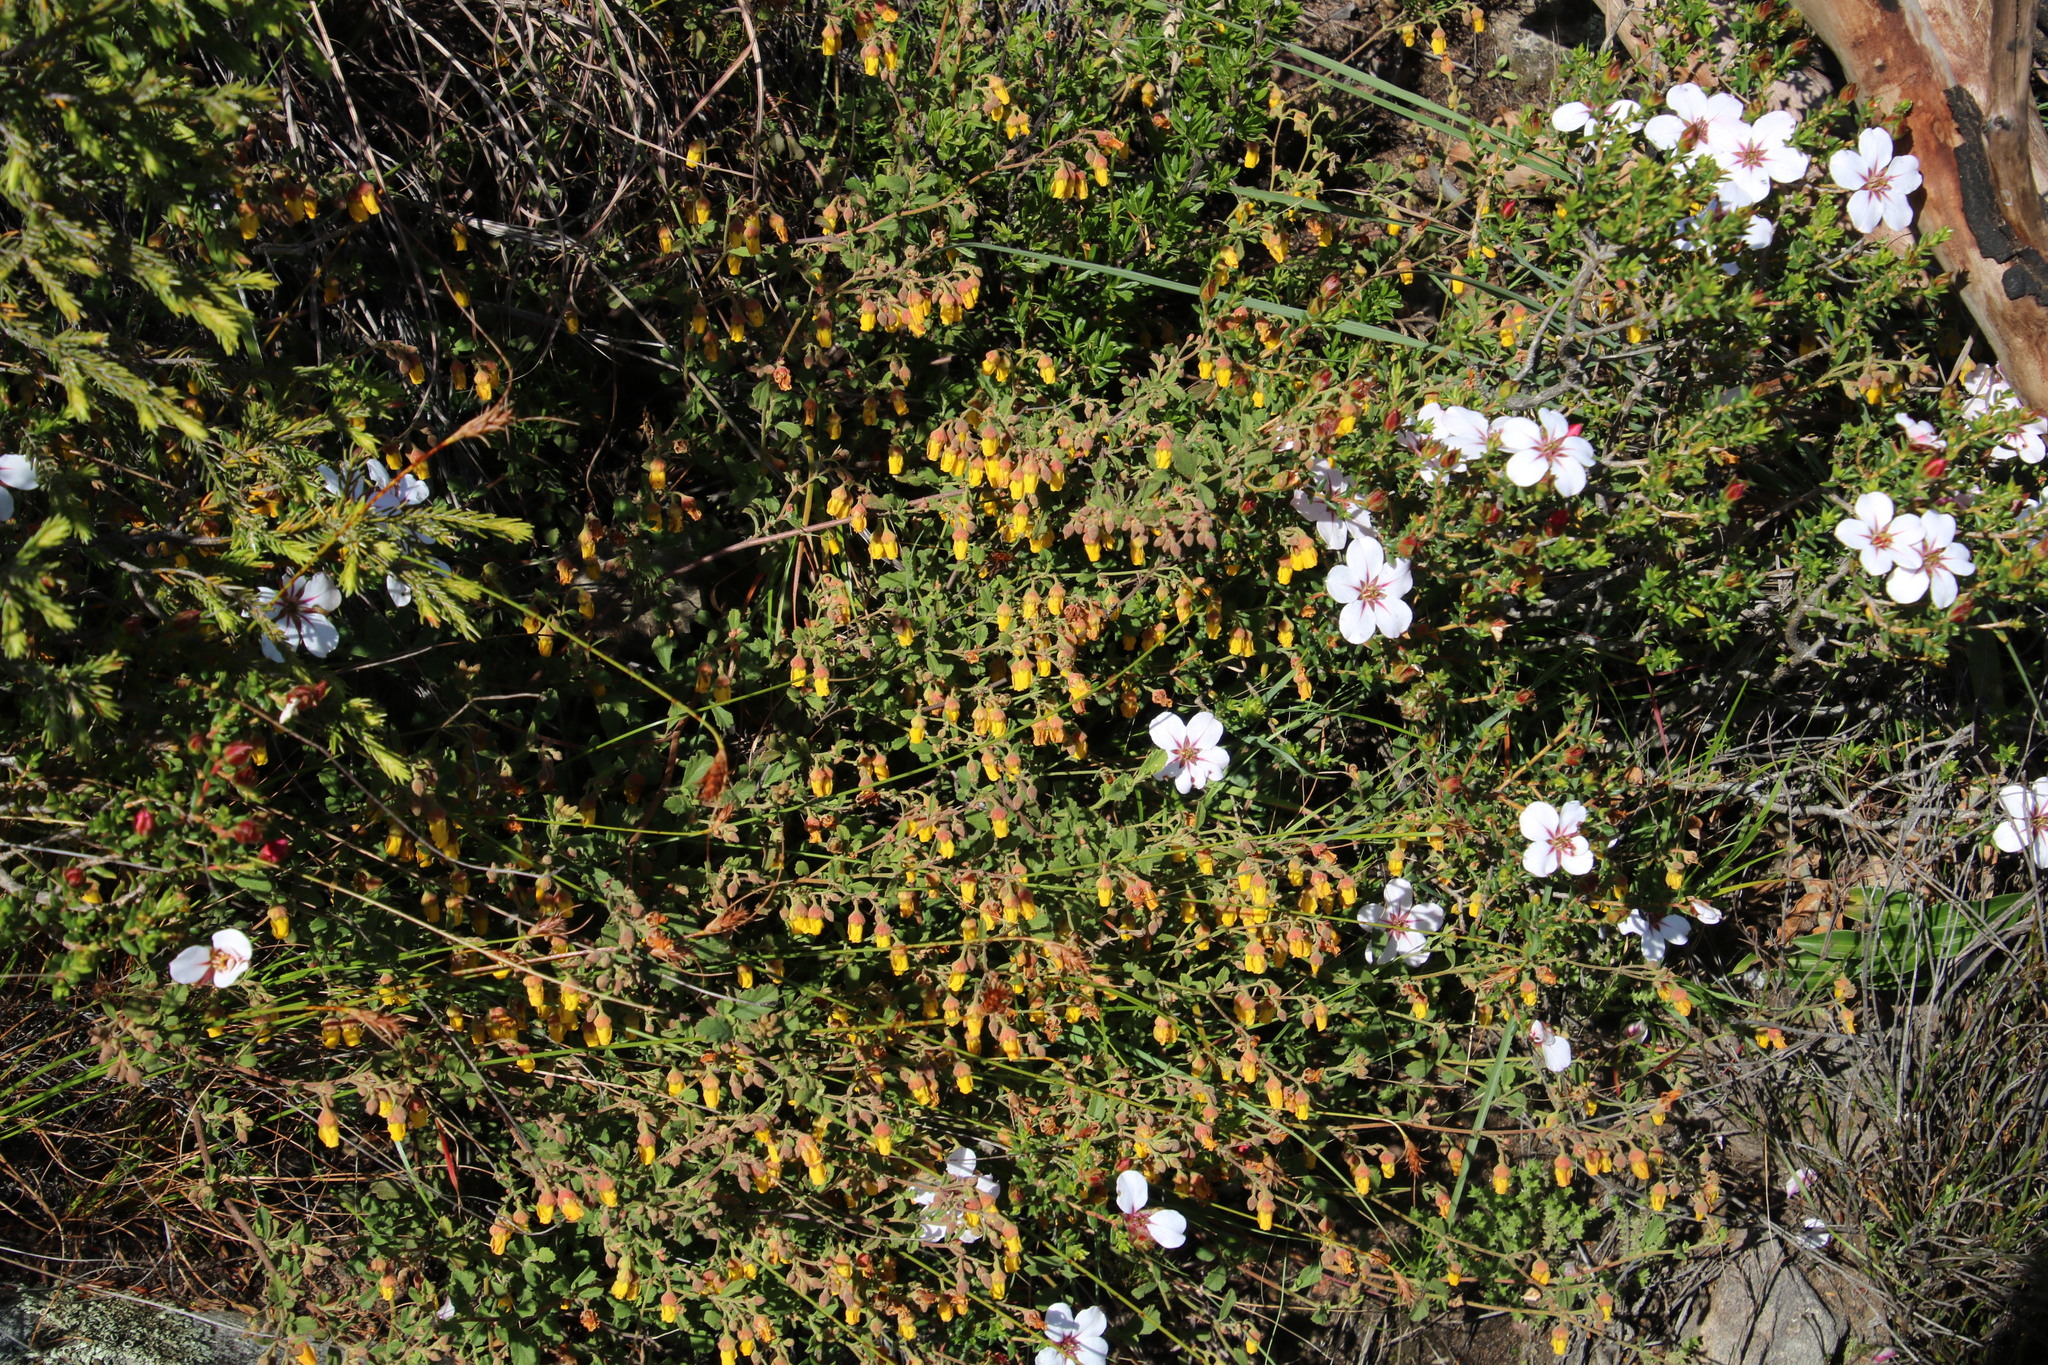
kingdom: Plantae
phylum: Tracheophyta
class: Magnoliopsida
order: Malvales
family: Malvaceae
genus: Hermannia
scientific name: Hermannia multiflora
